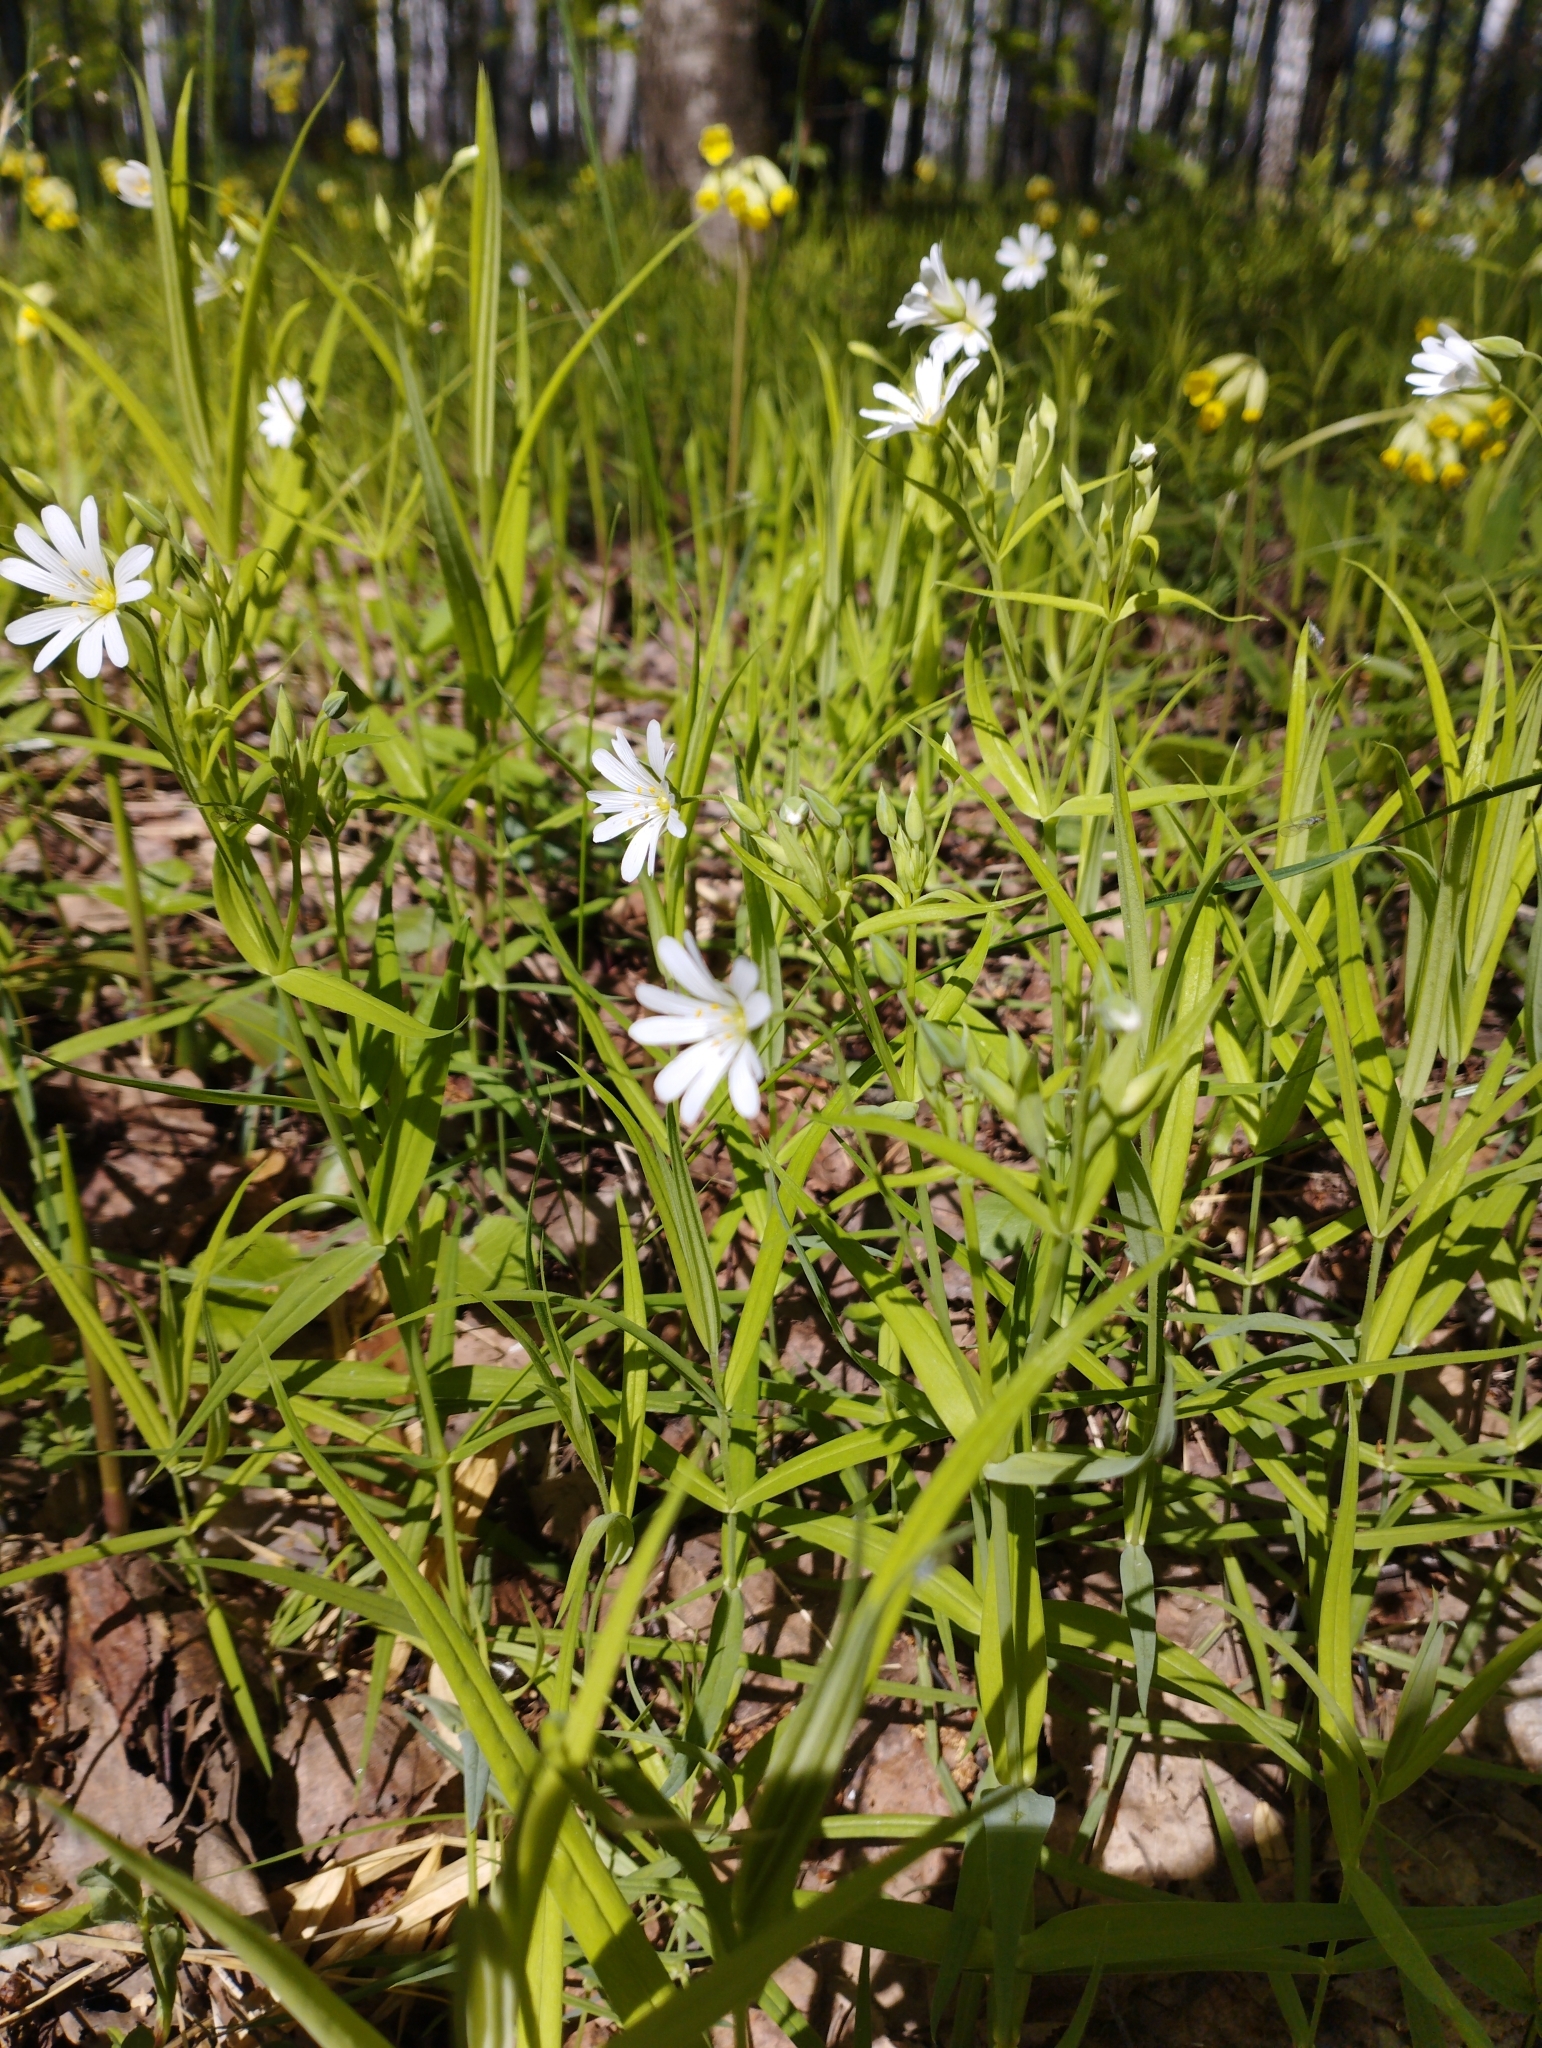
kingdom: Plantae
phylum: Tracheophyta
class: Magnoliopsida
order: Caryophyllales
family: Caryophyllaceae
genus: Rabelera
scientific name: Rabelera holostea
